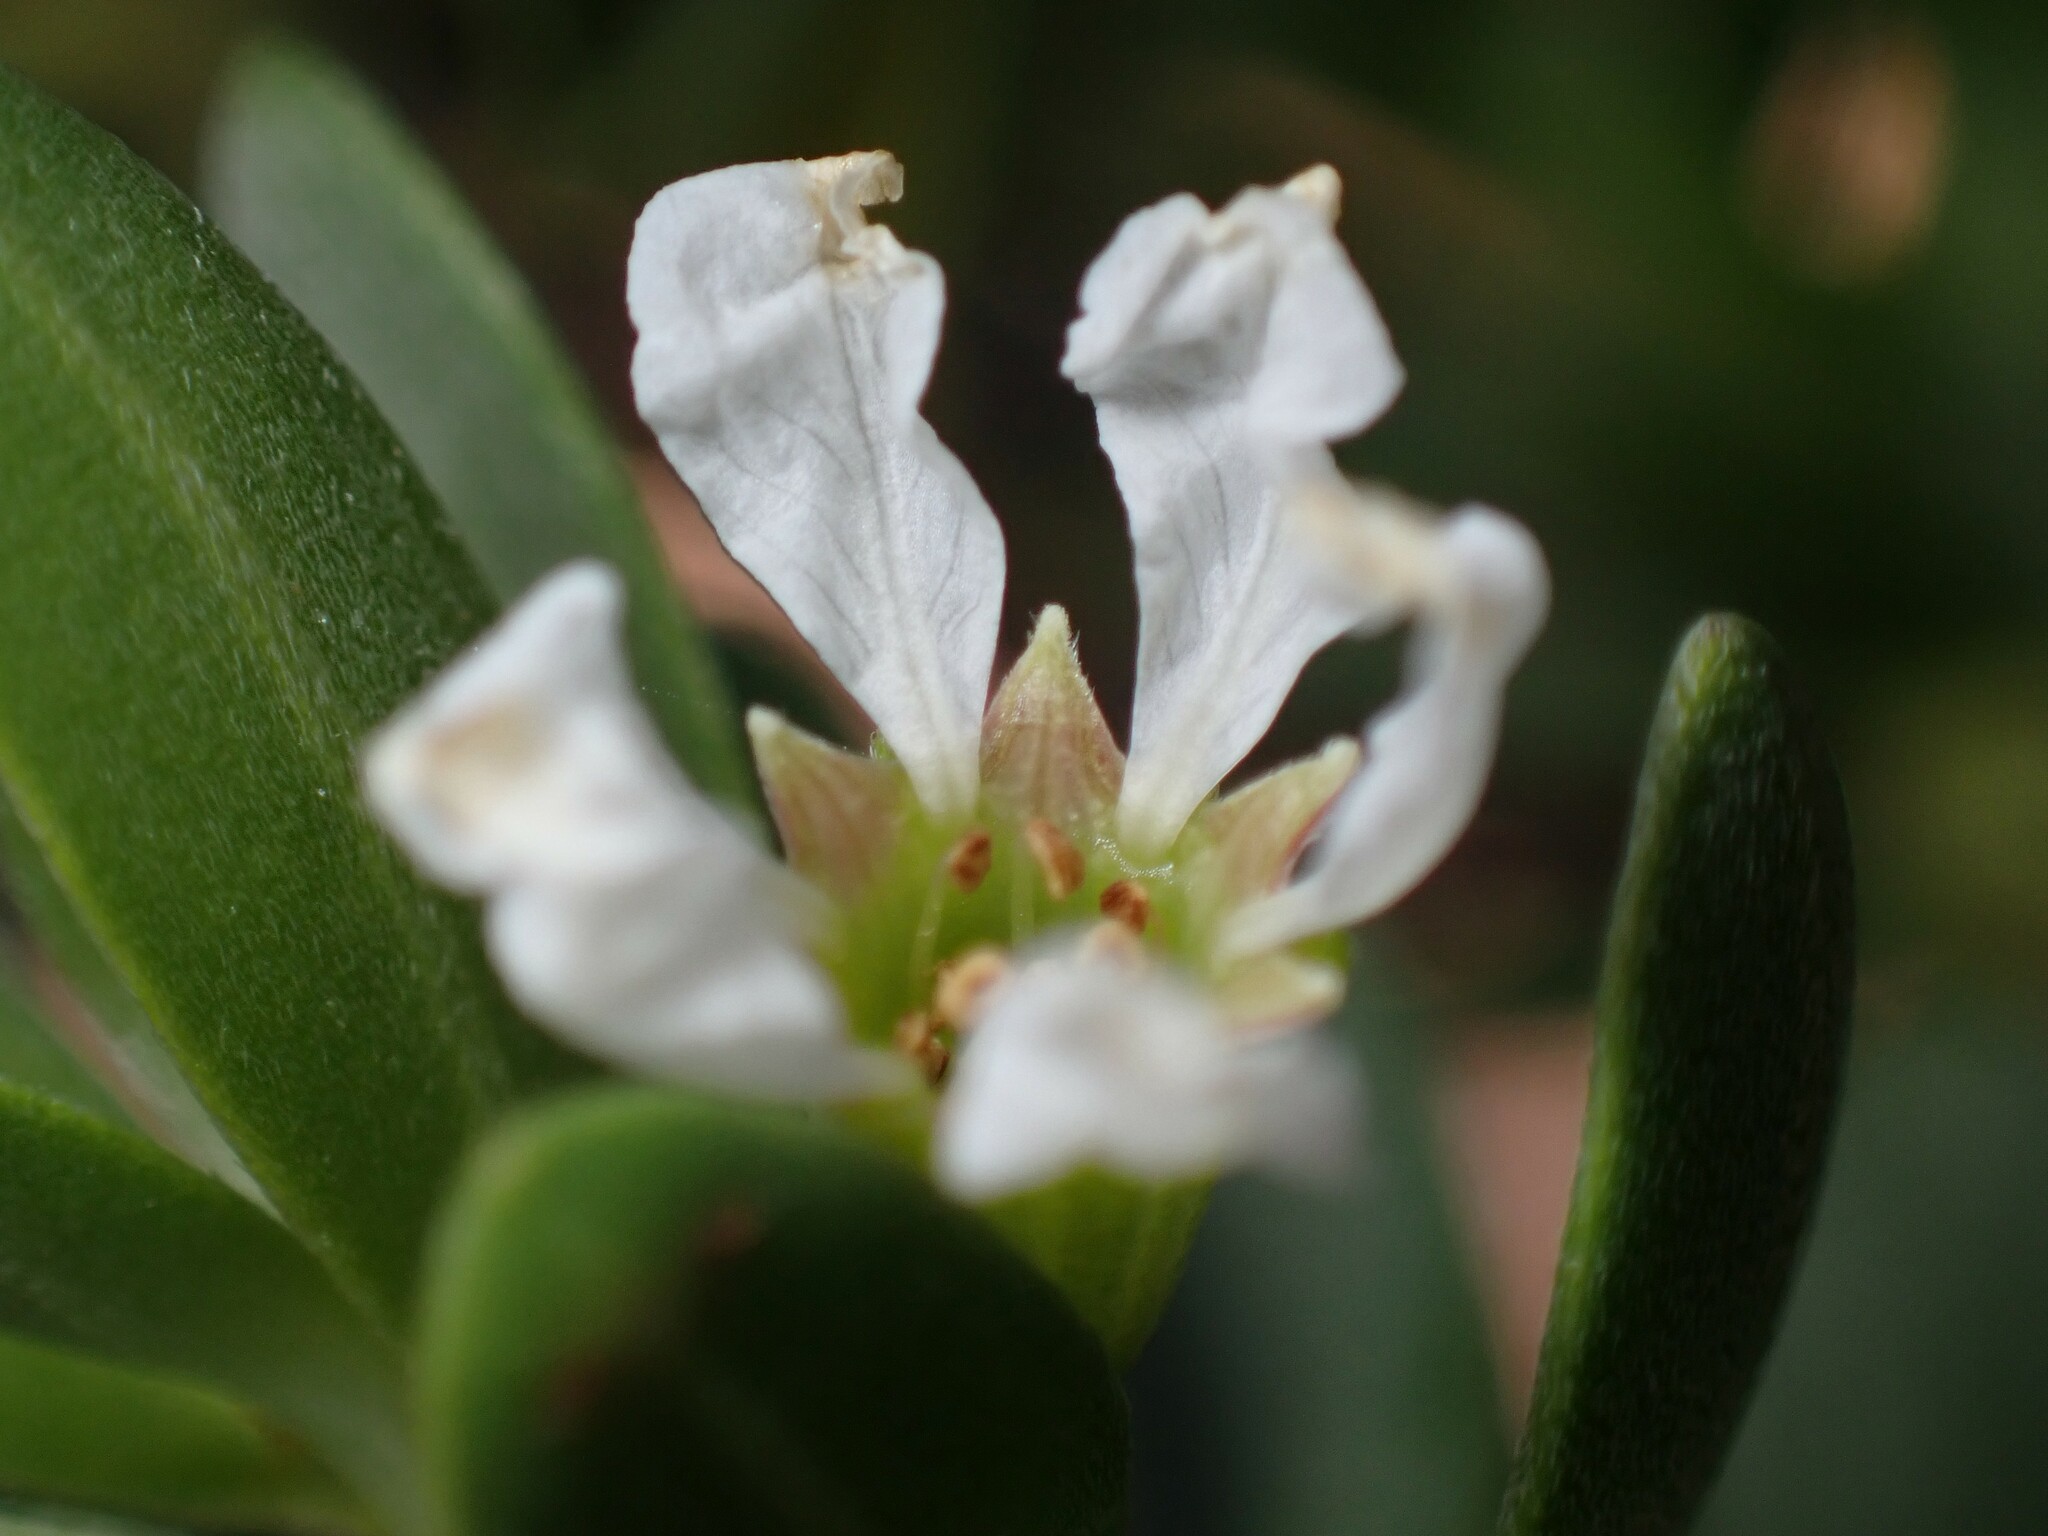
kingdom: Plantae
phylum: Tracheophyta
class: Magnoliopsida
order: Myrtales
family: Lythraceae
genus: Pemphis
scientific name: Pemphis acidula
